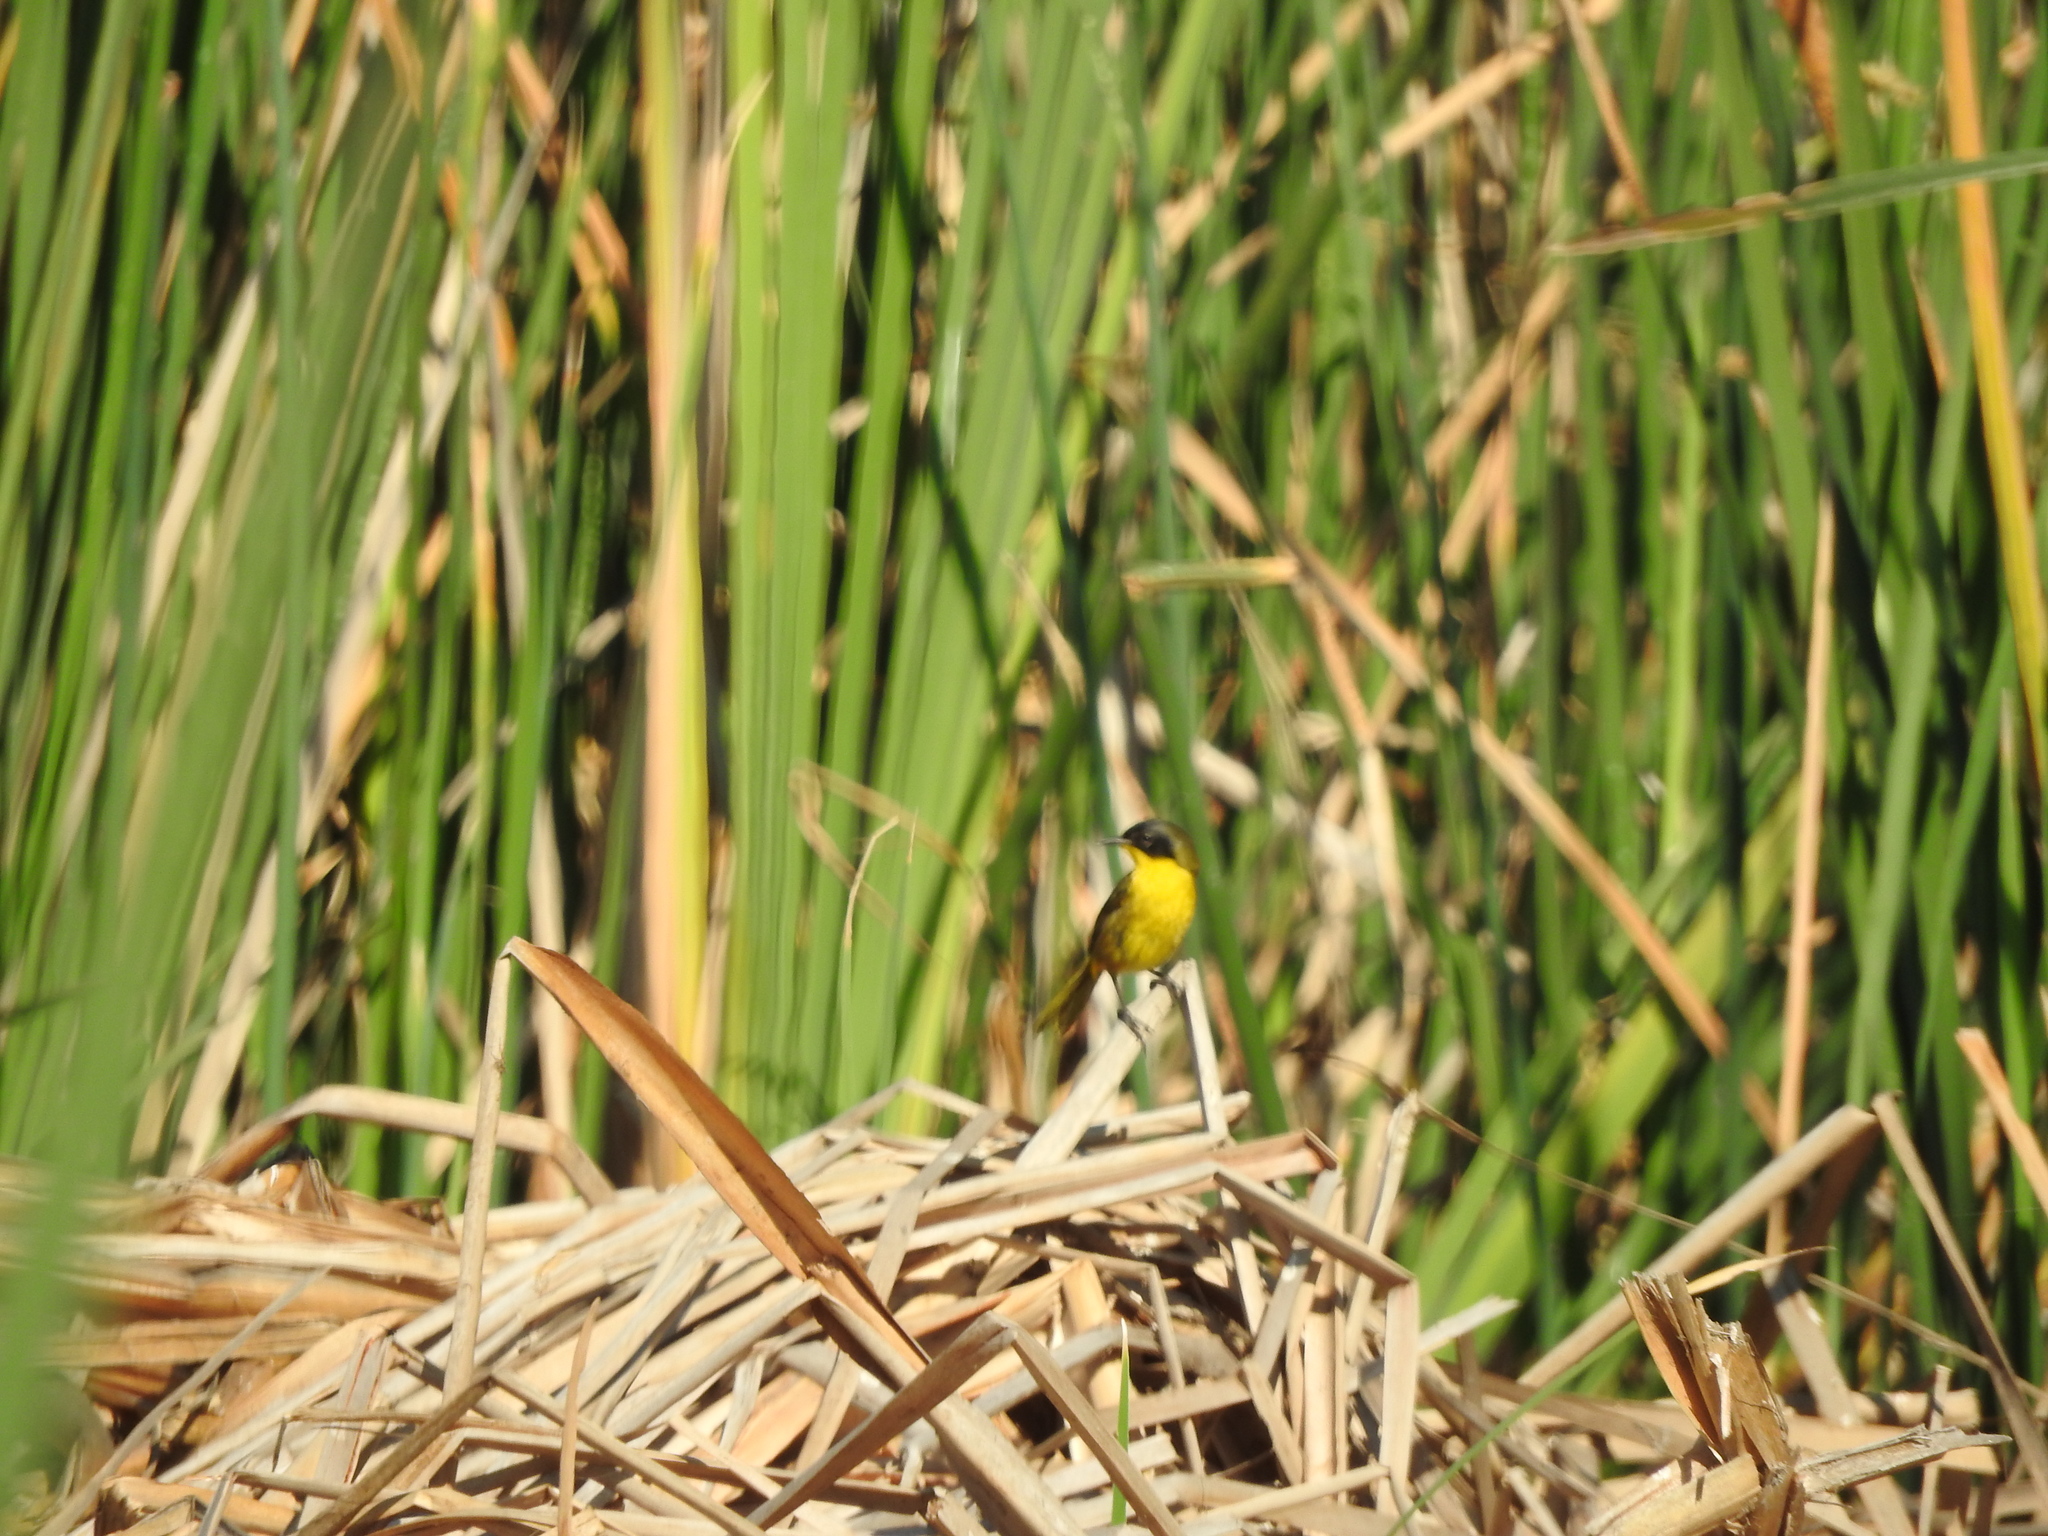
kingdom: Animalia
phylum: Chordata
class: Aves
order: Passeriformes
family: Parulidae
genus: Geothlypis
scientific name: Geothlypis speciosa
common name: Black-polled yellowthroat
